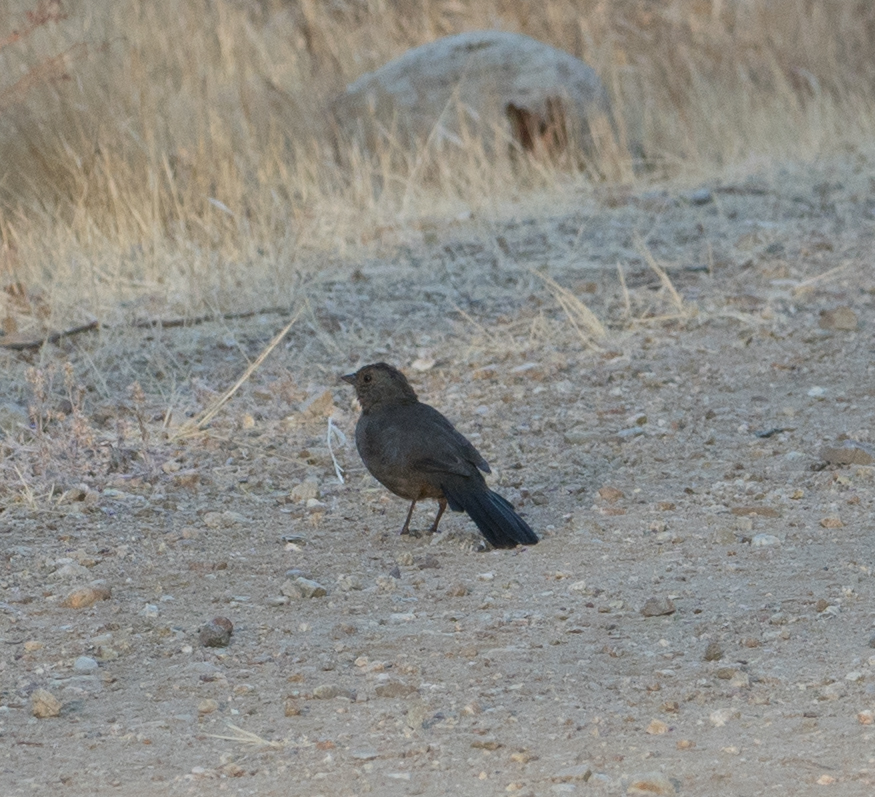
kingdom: Animalia
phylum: Chordata
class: Aves
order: Passeriformes
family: Passerellidae
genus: Melozone
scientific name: Melozone crissalis
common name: California towhee
